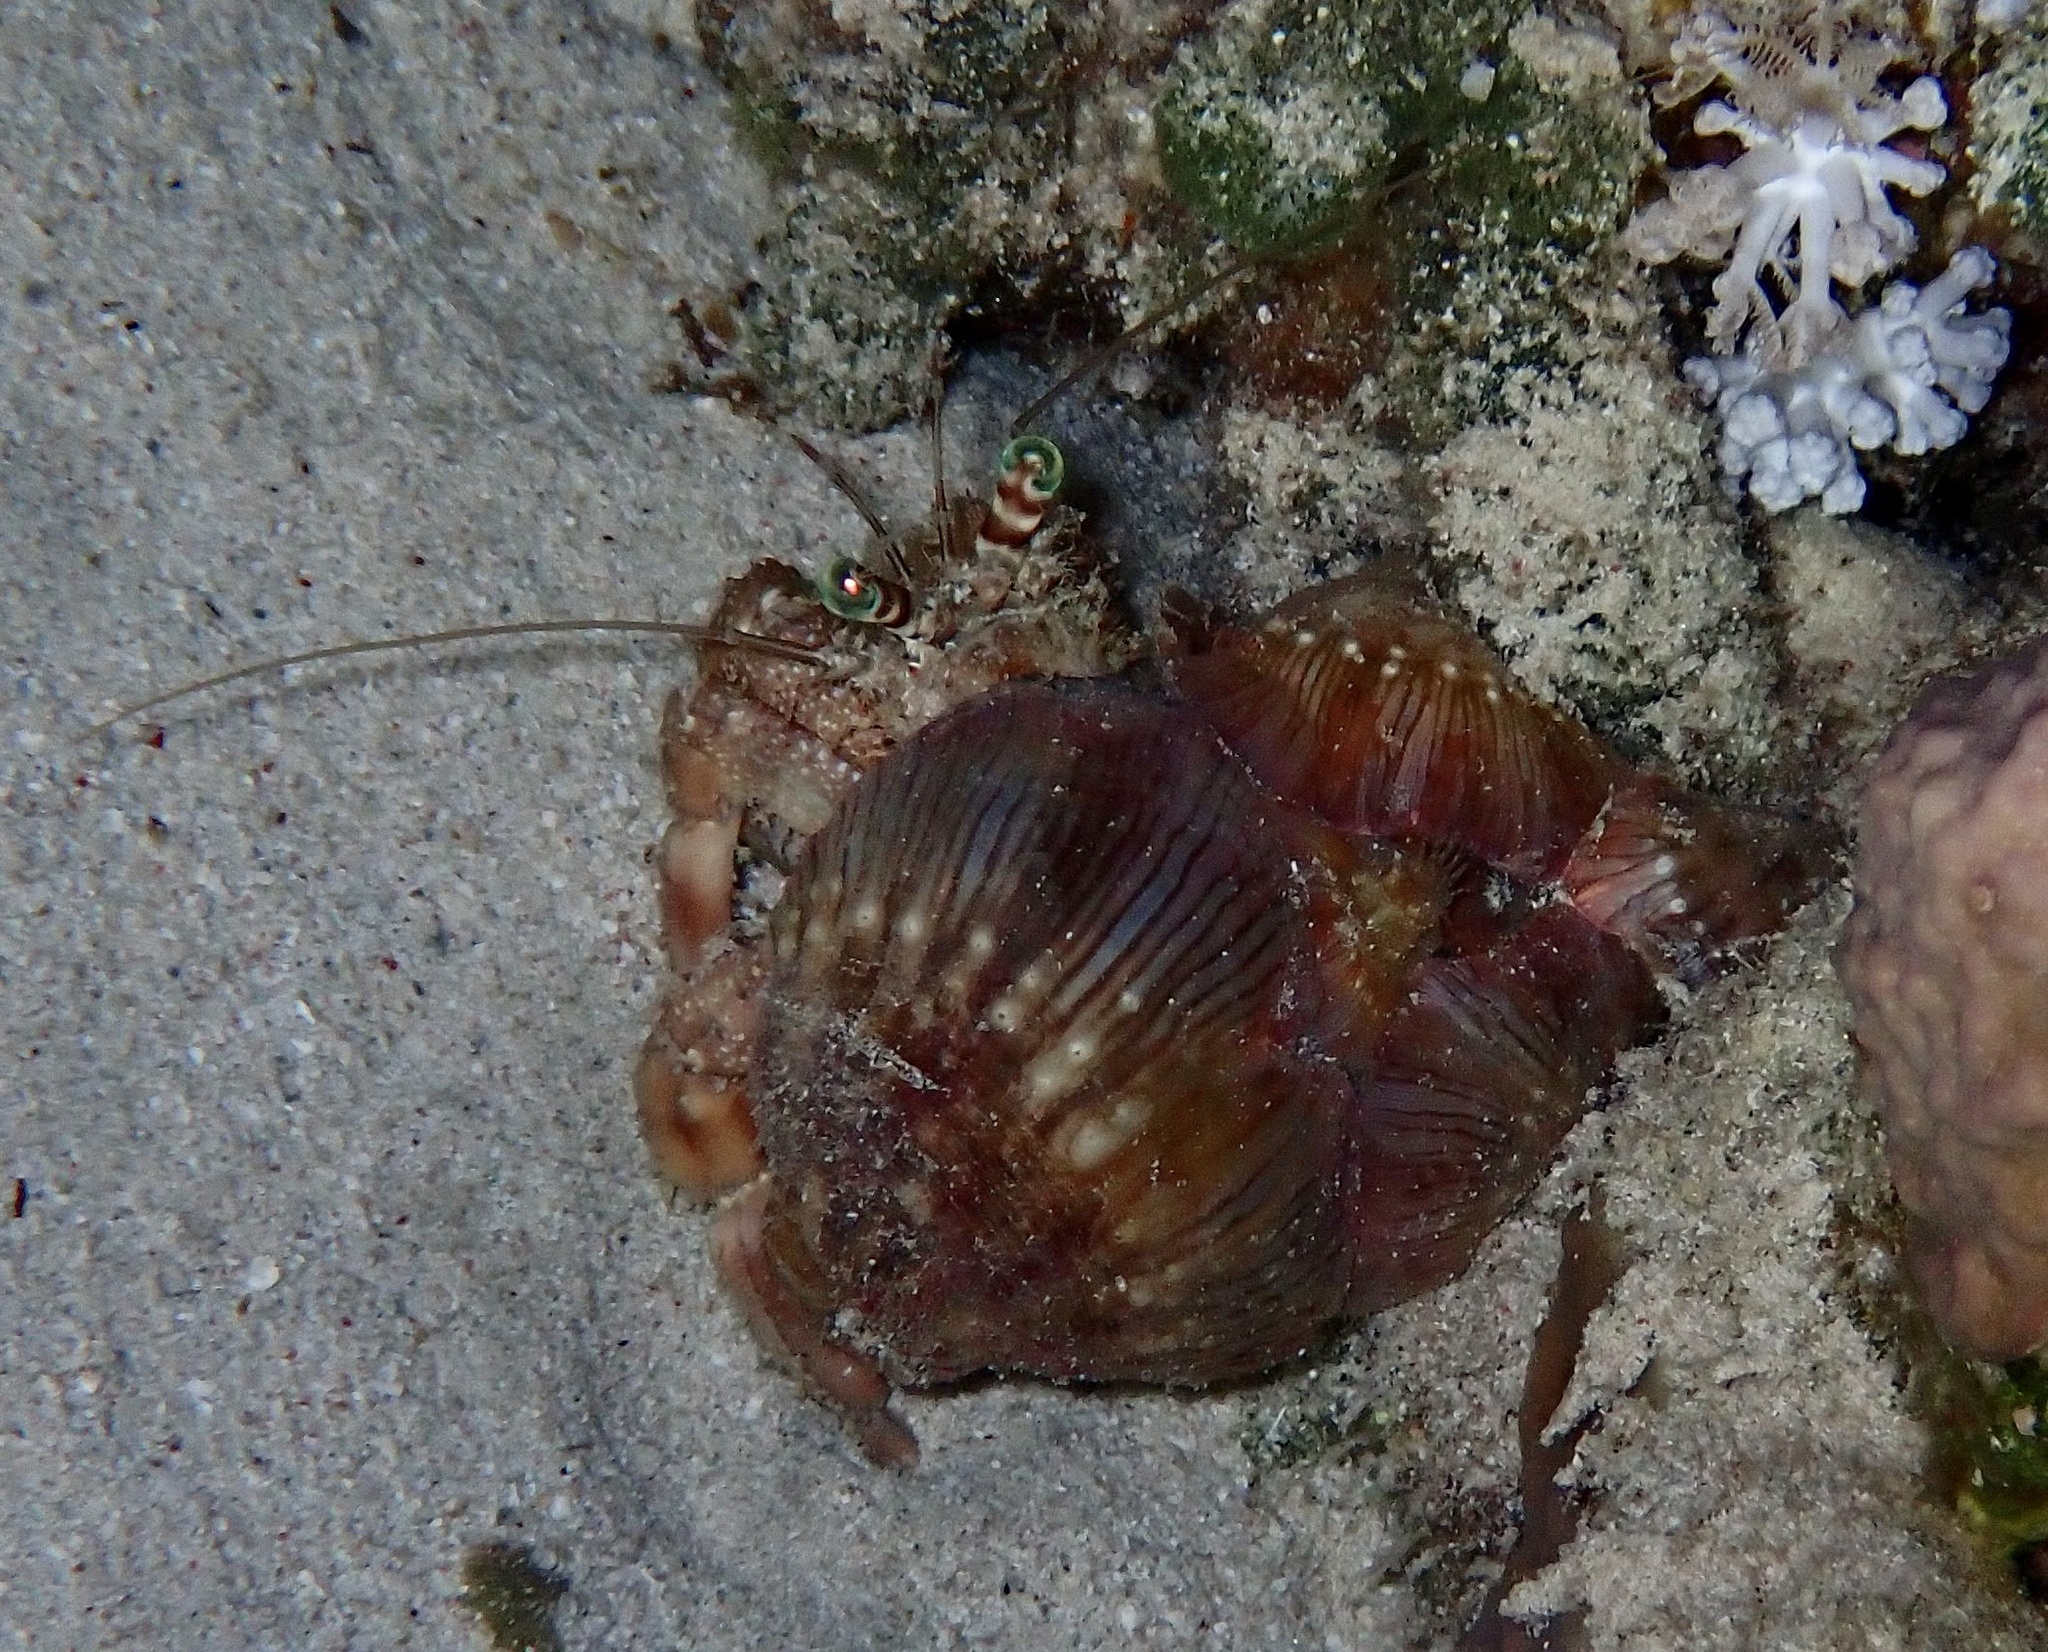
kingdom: Animalia
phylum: Arthropoda
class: Malacostraca
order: Decapoda
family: Diogenidae
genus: Dardanus
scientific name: Dardanus tinctor
